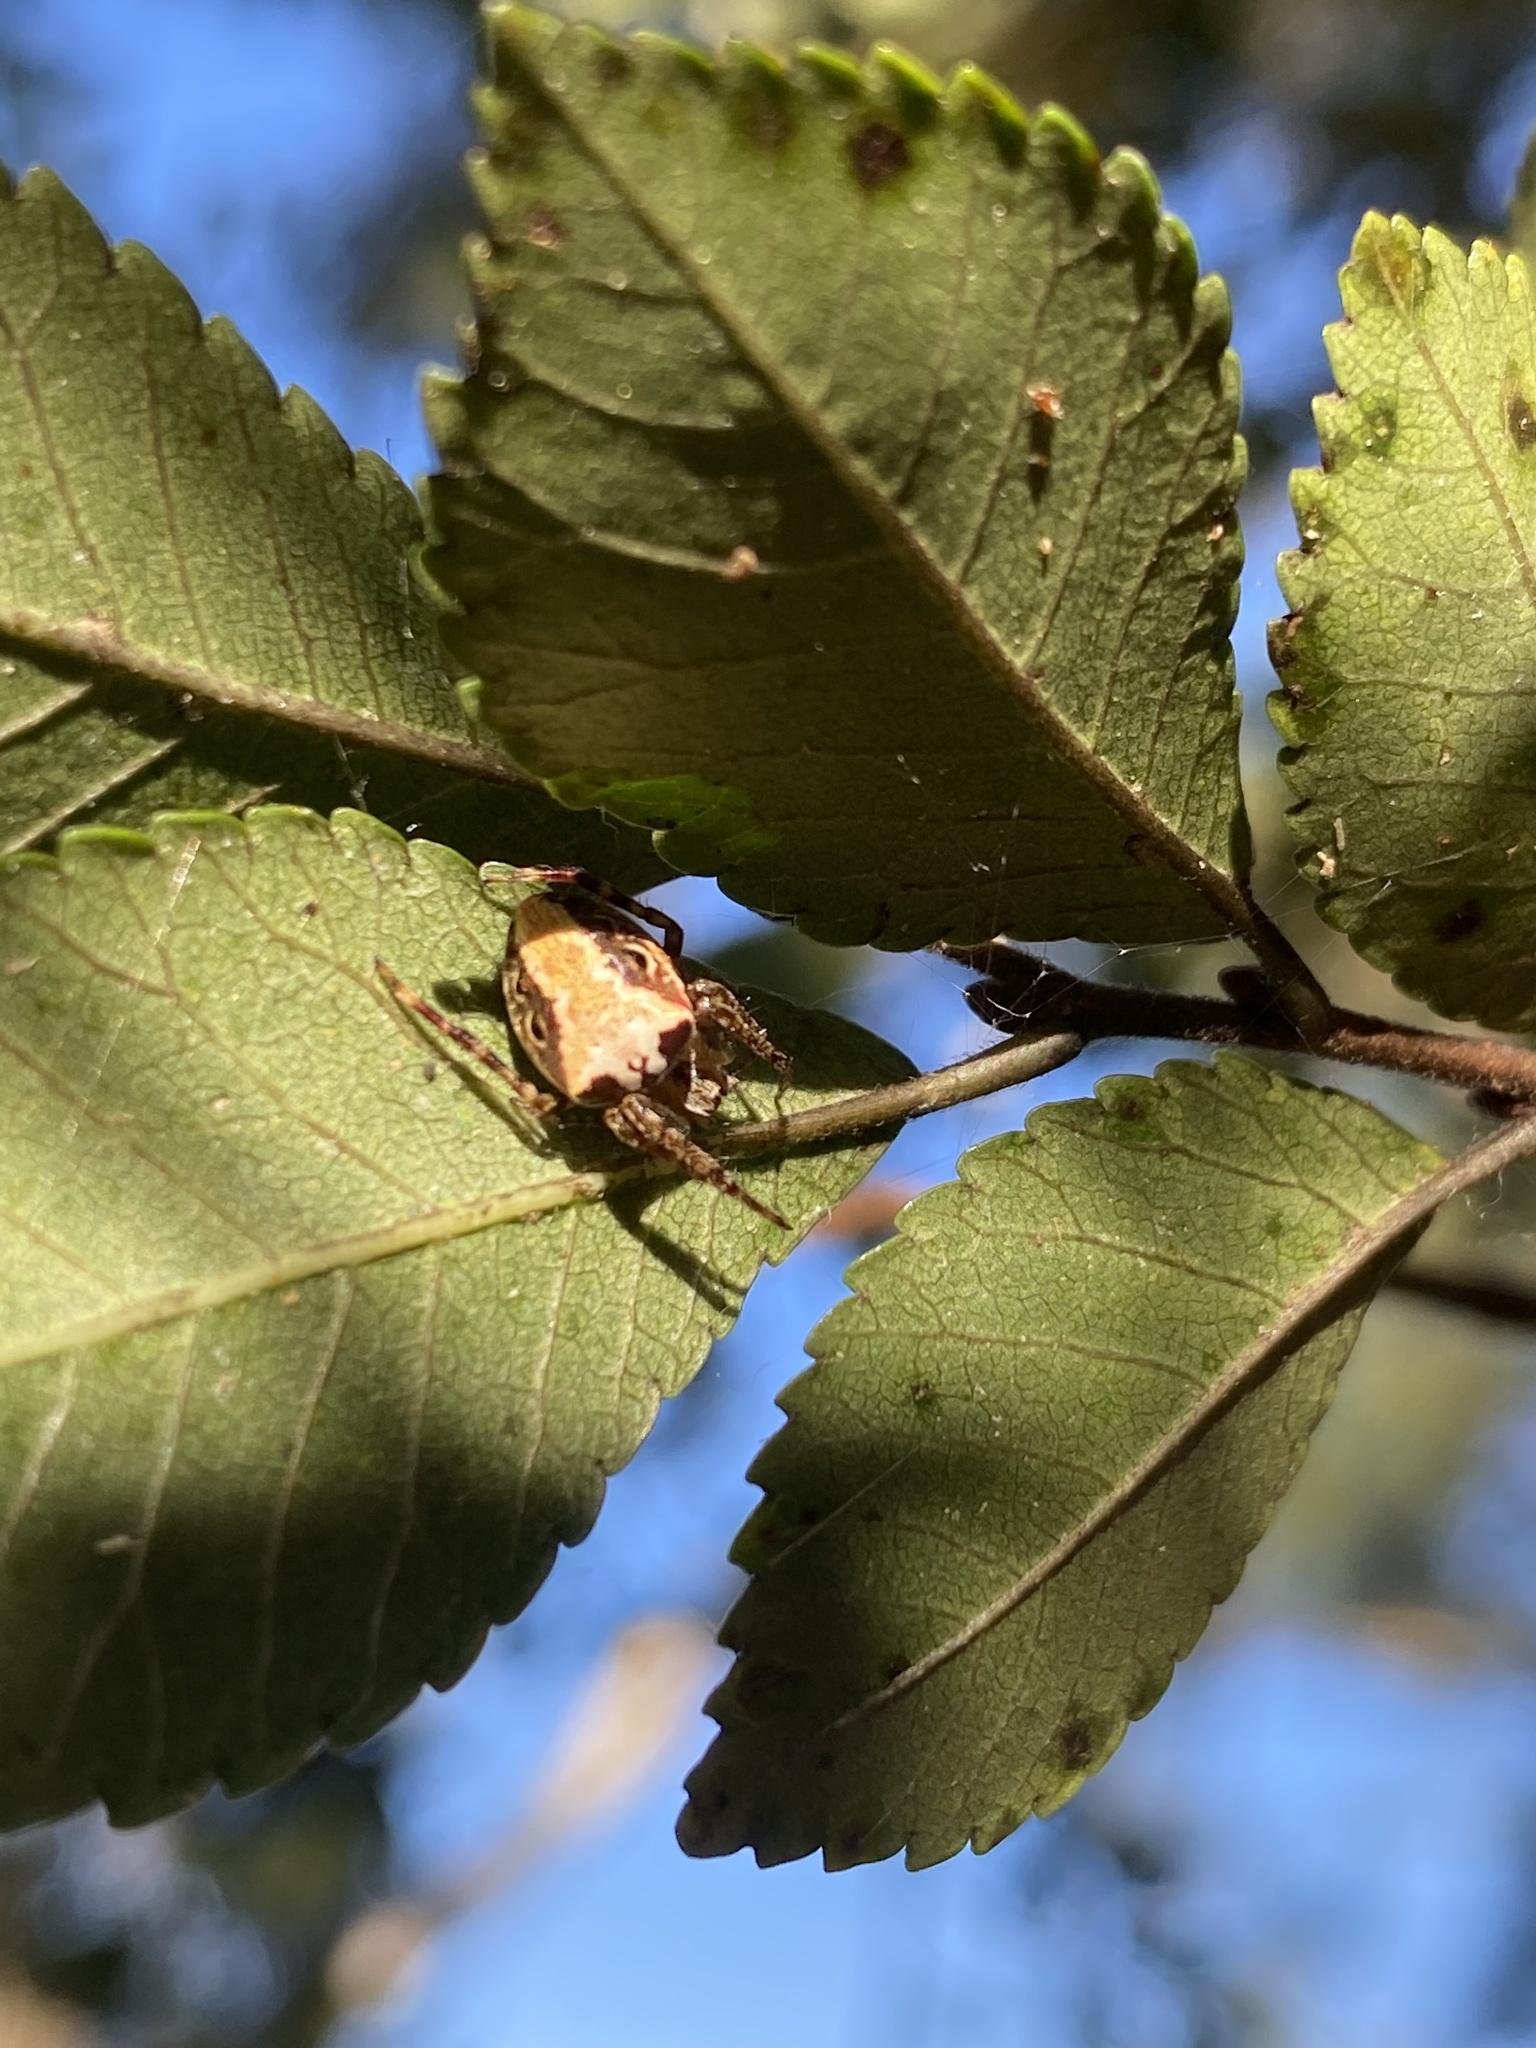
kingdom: Animalia
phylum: Arthropoda
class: Arachnida
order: Araneae
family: Araneidae
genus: Plebs
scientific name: Plebs eburnus
